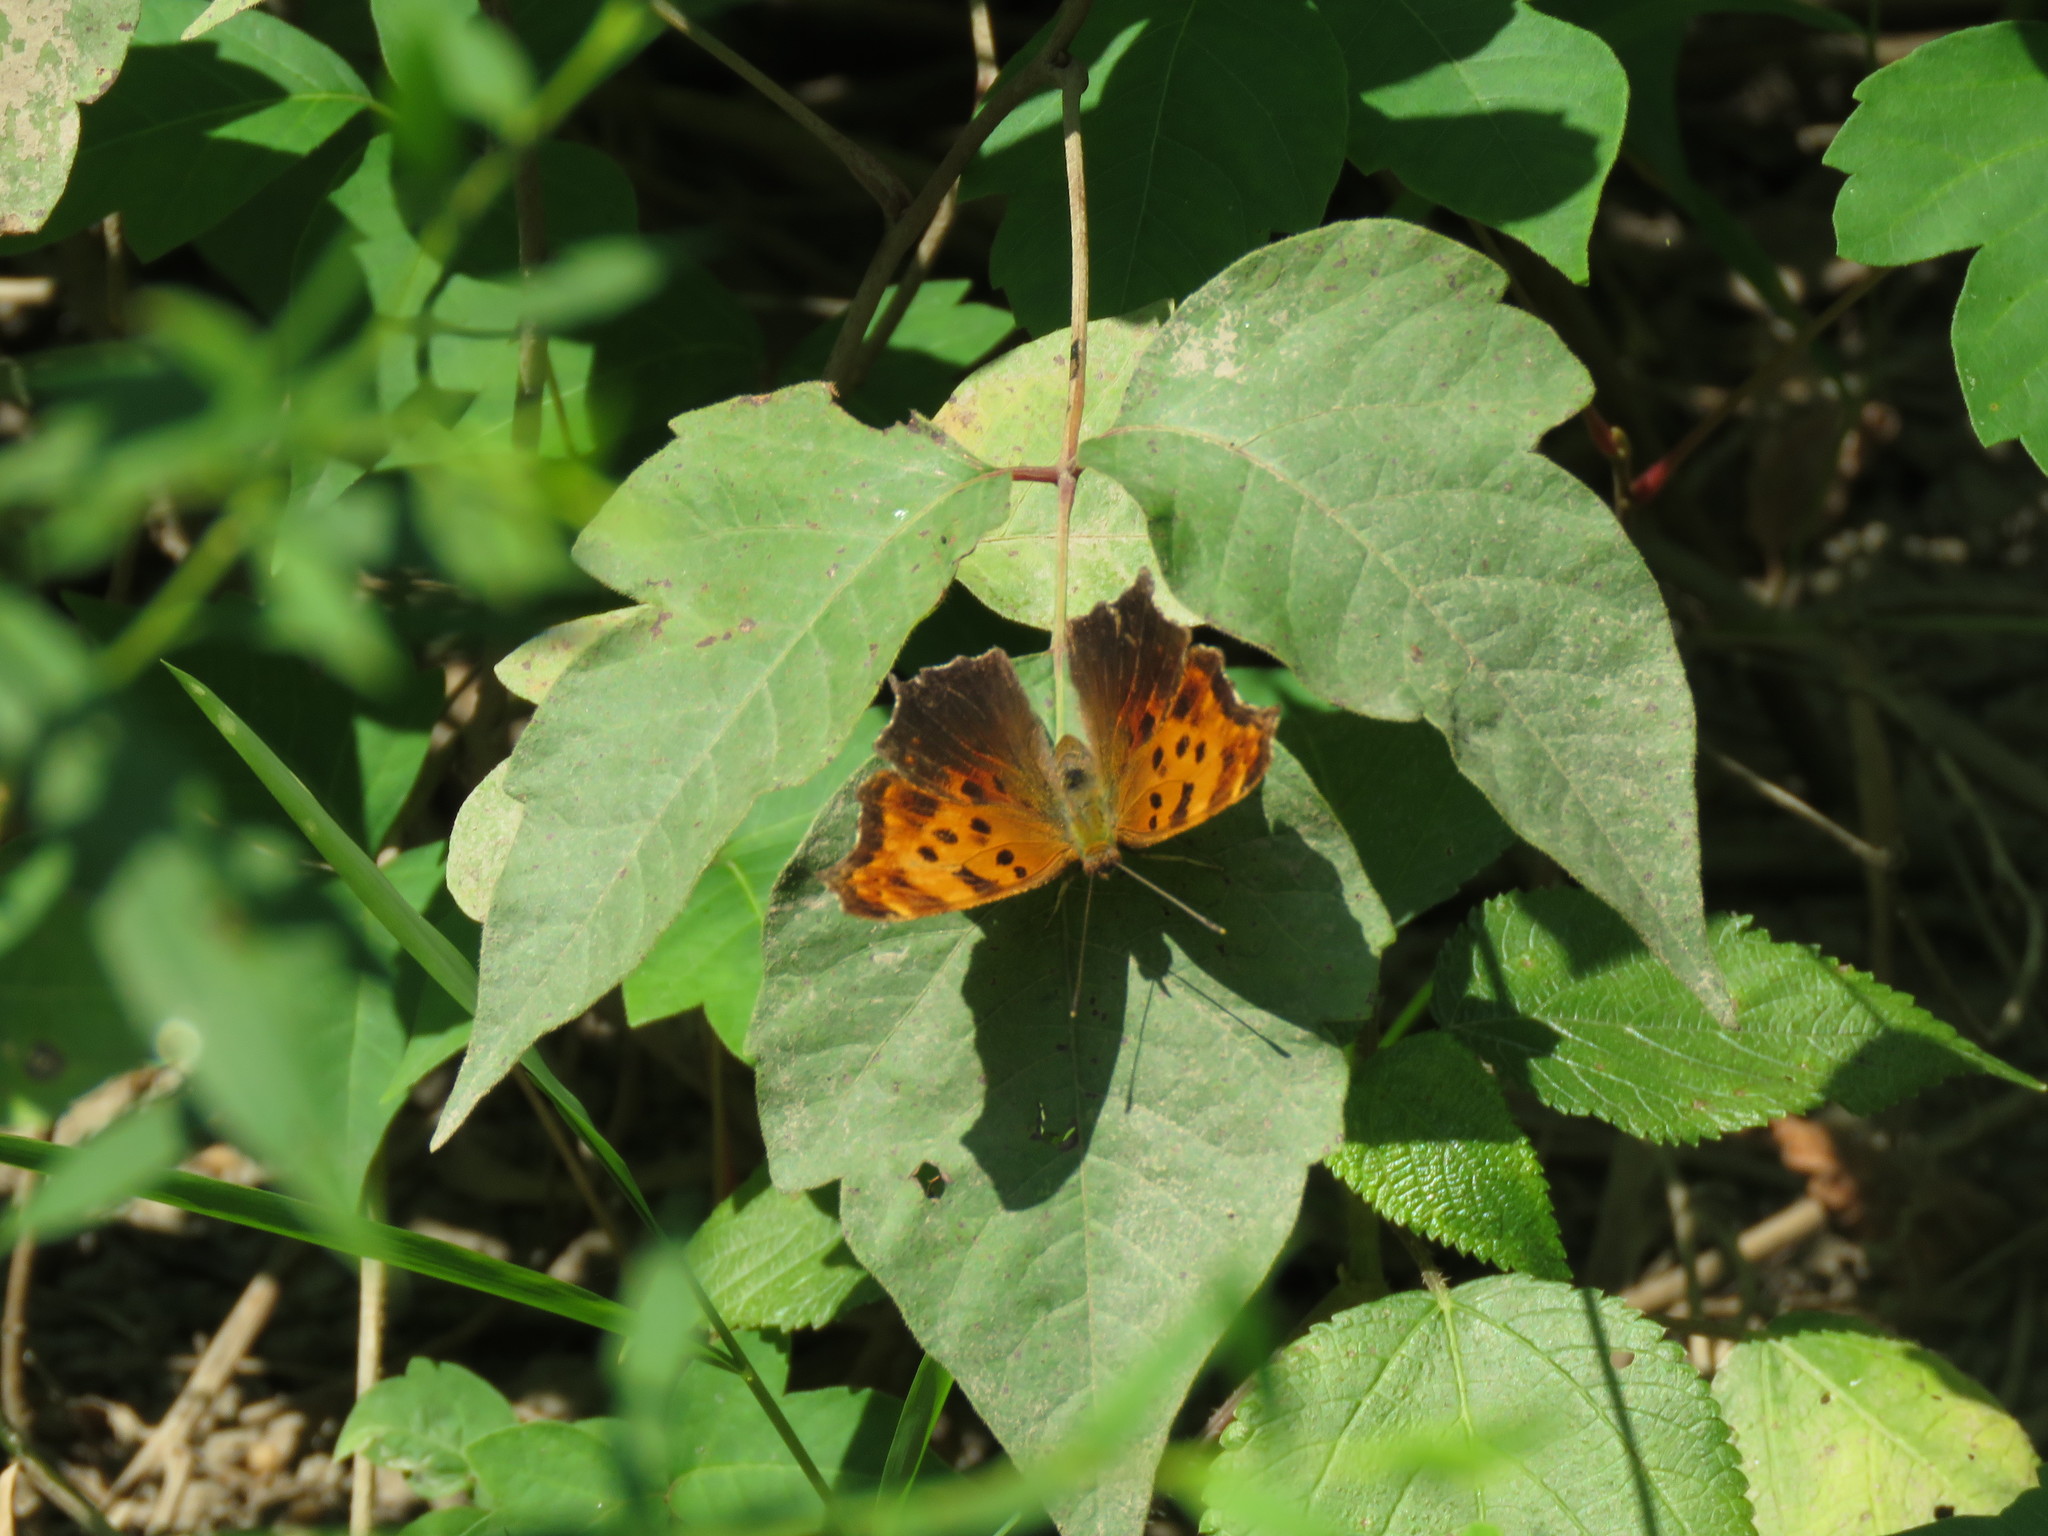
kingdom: Animalia
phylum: Arthropoda
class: Insecta
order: Lepidoptera
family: Nymphalidae
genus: Polygonia
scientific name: Polygonia comma
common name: Eastern comma
